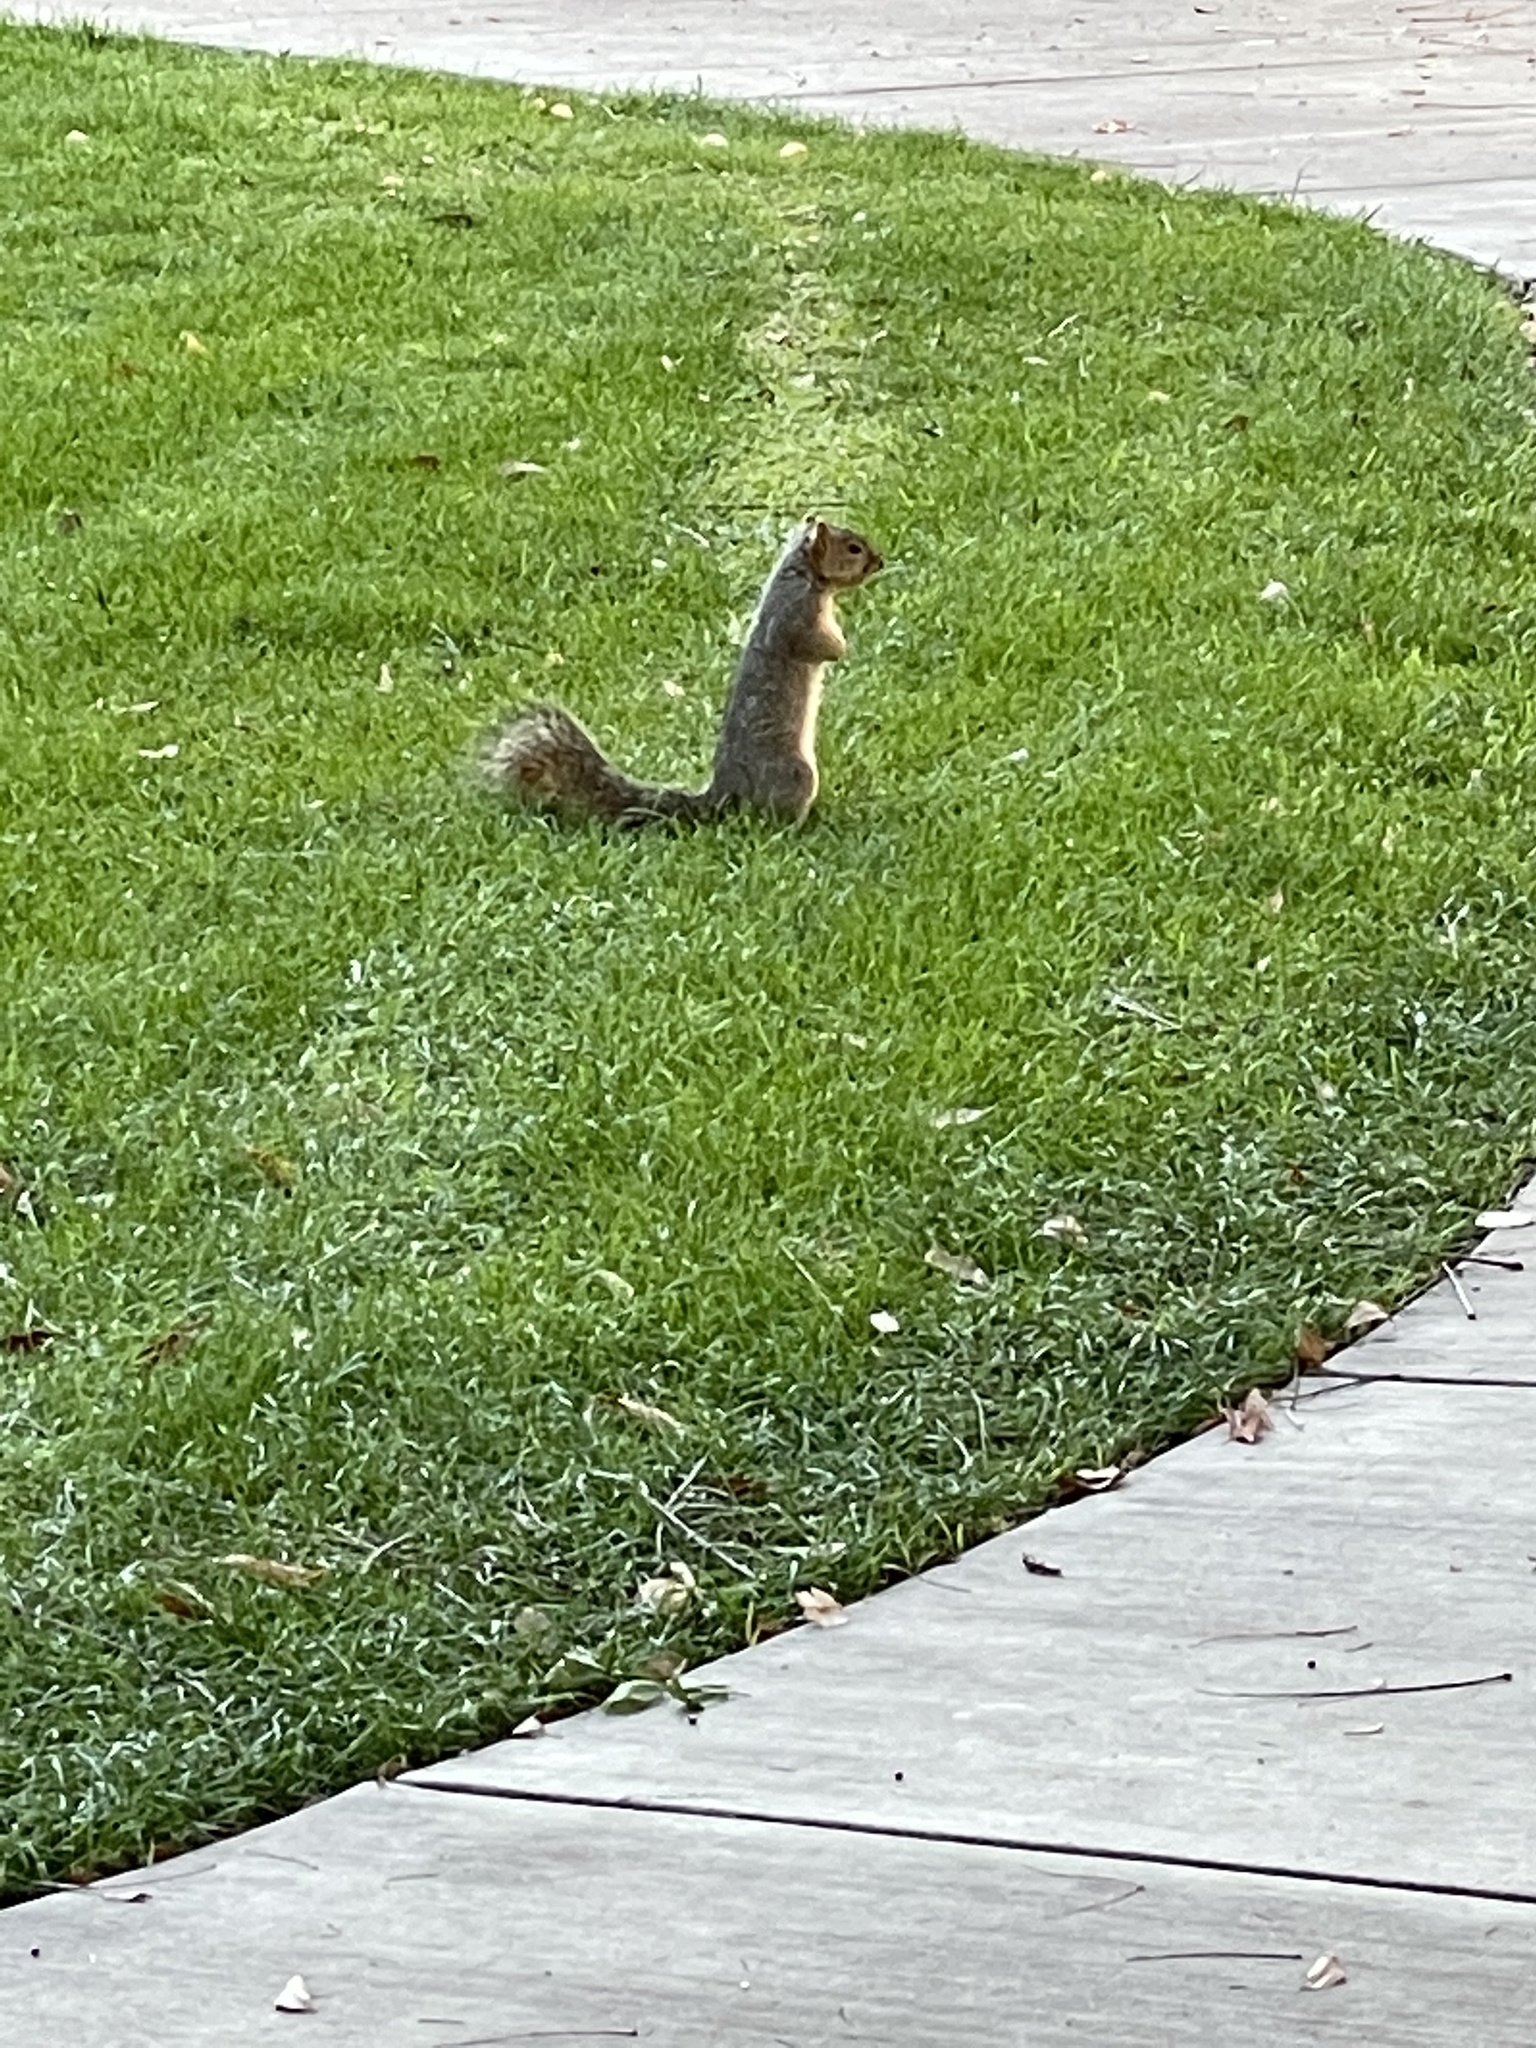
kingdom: Animalia
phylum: Chordata
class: Mammalia
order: Rodentia
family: Sciuridae
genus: Sciurus
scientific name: Sciurus niger
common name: Fox squirrel
